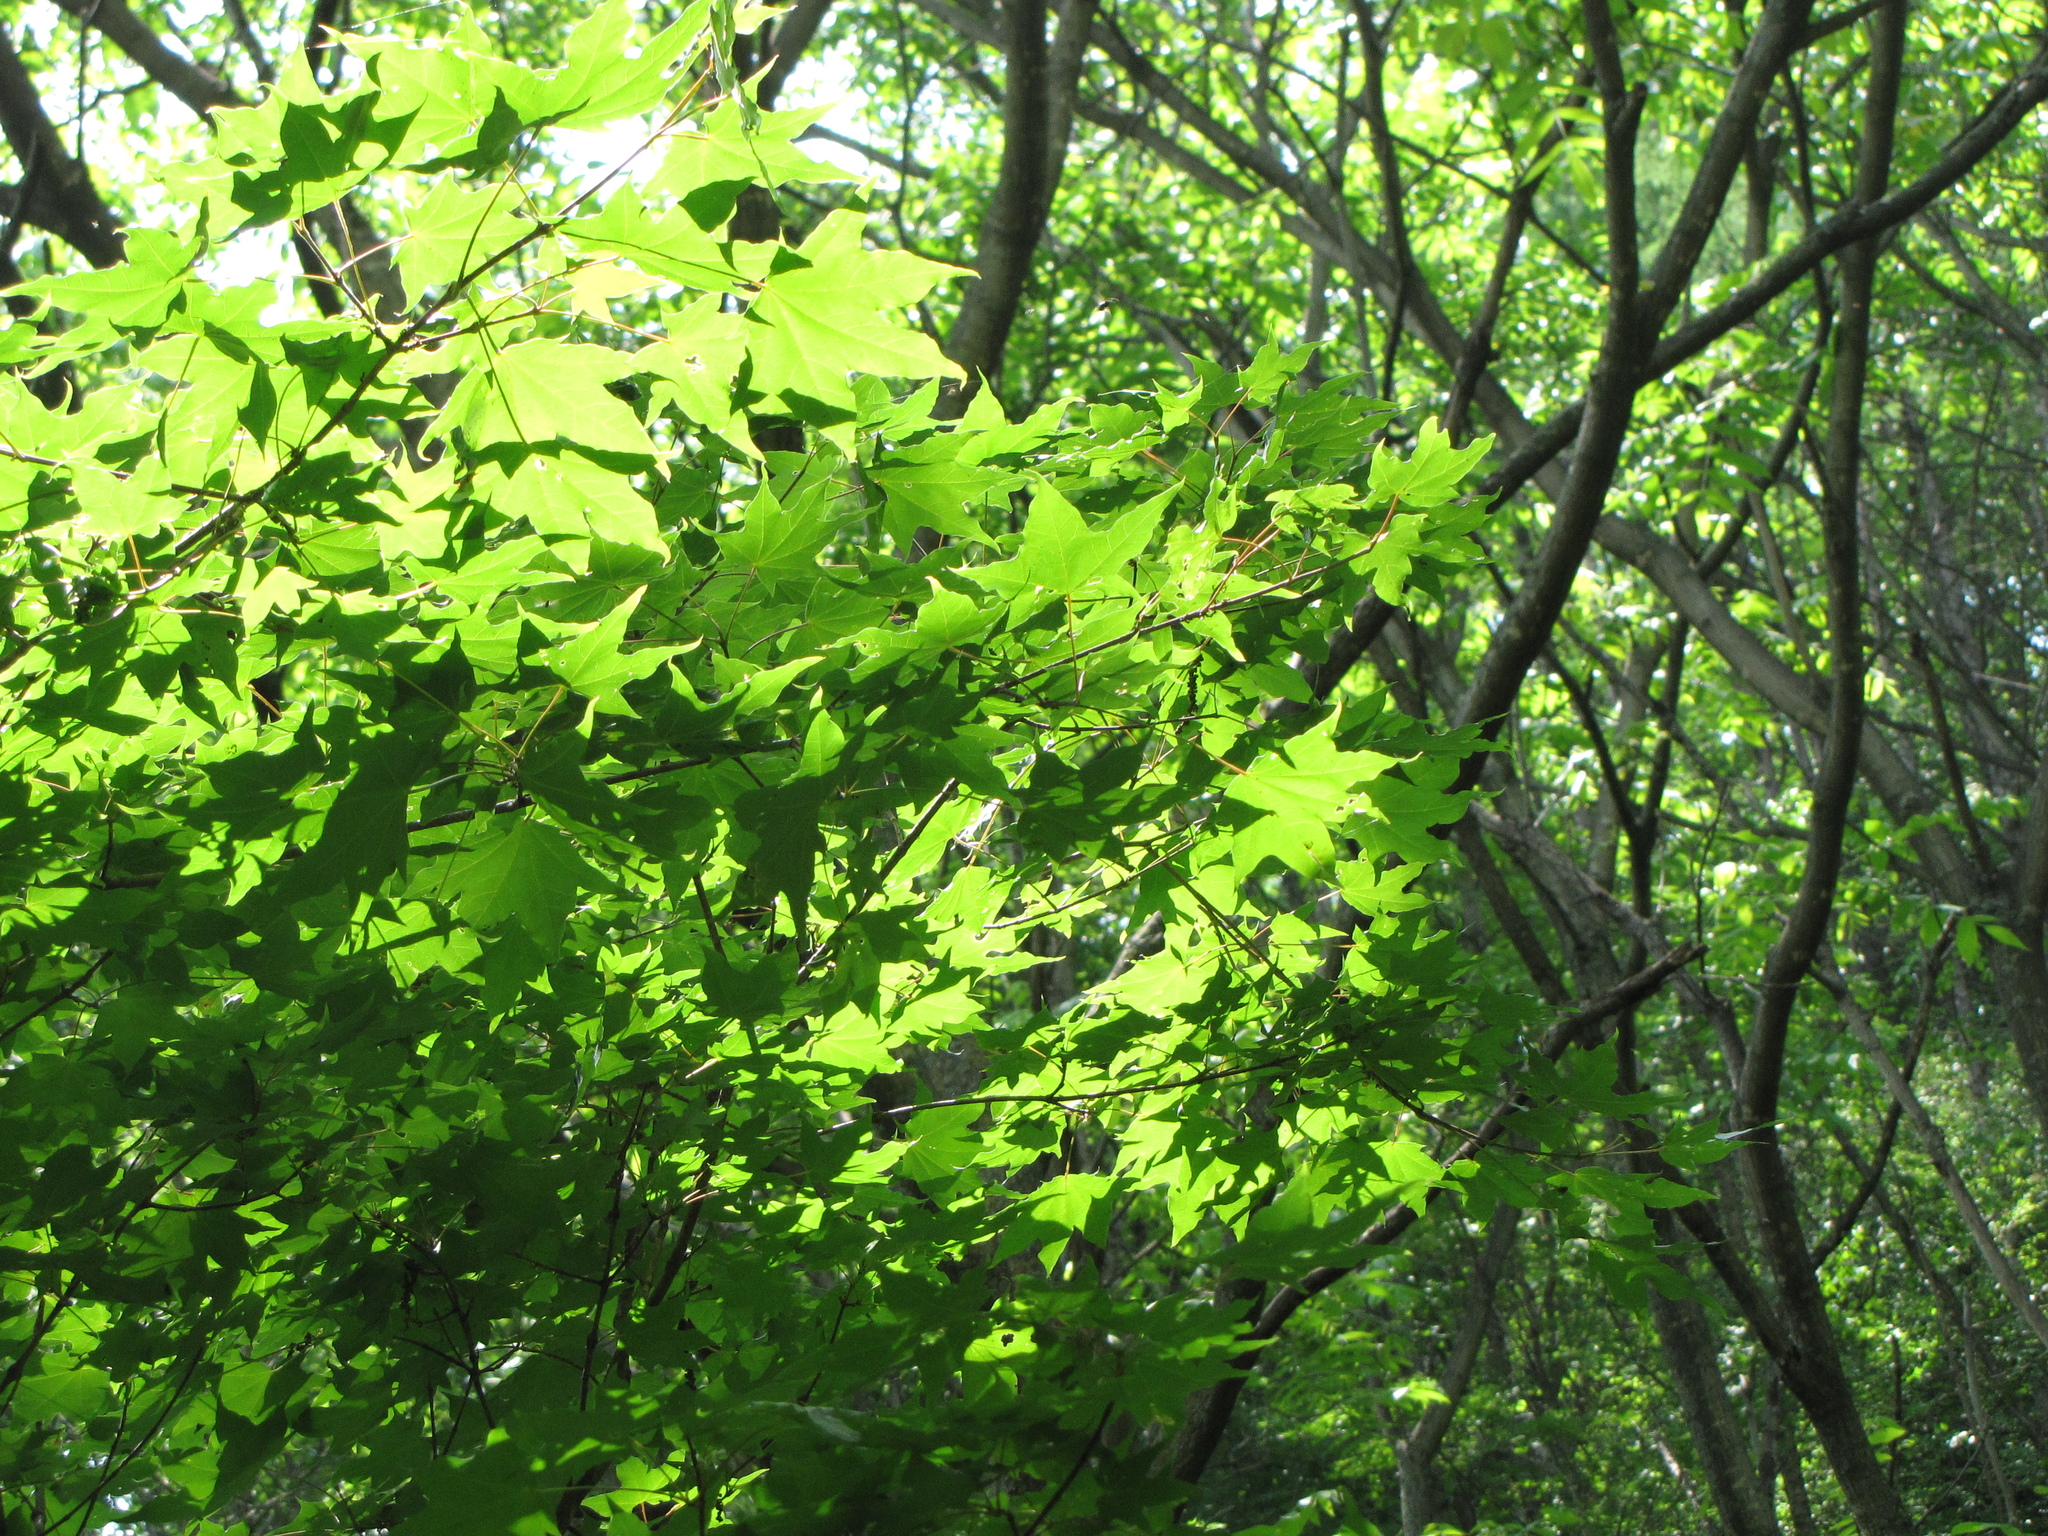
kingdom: Plantae
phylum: Tracheophyta
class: Magnoliopsida
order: Sapindales
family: Sapindaceae
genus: Acer
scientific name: Acer pictum
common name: The painted maple
